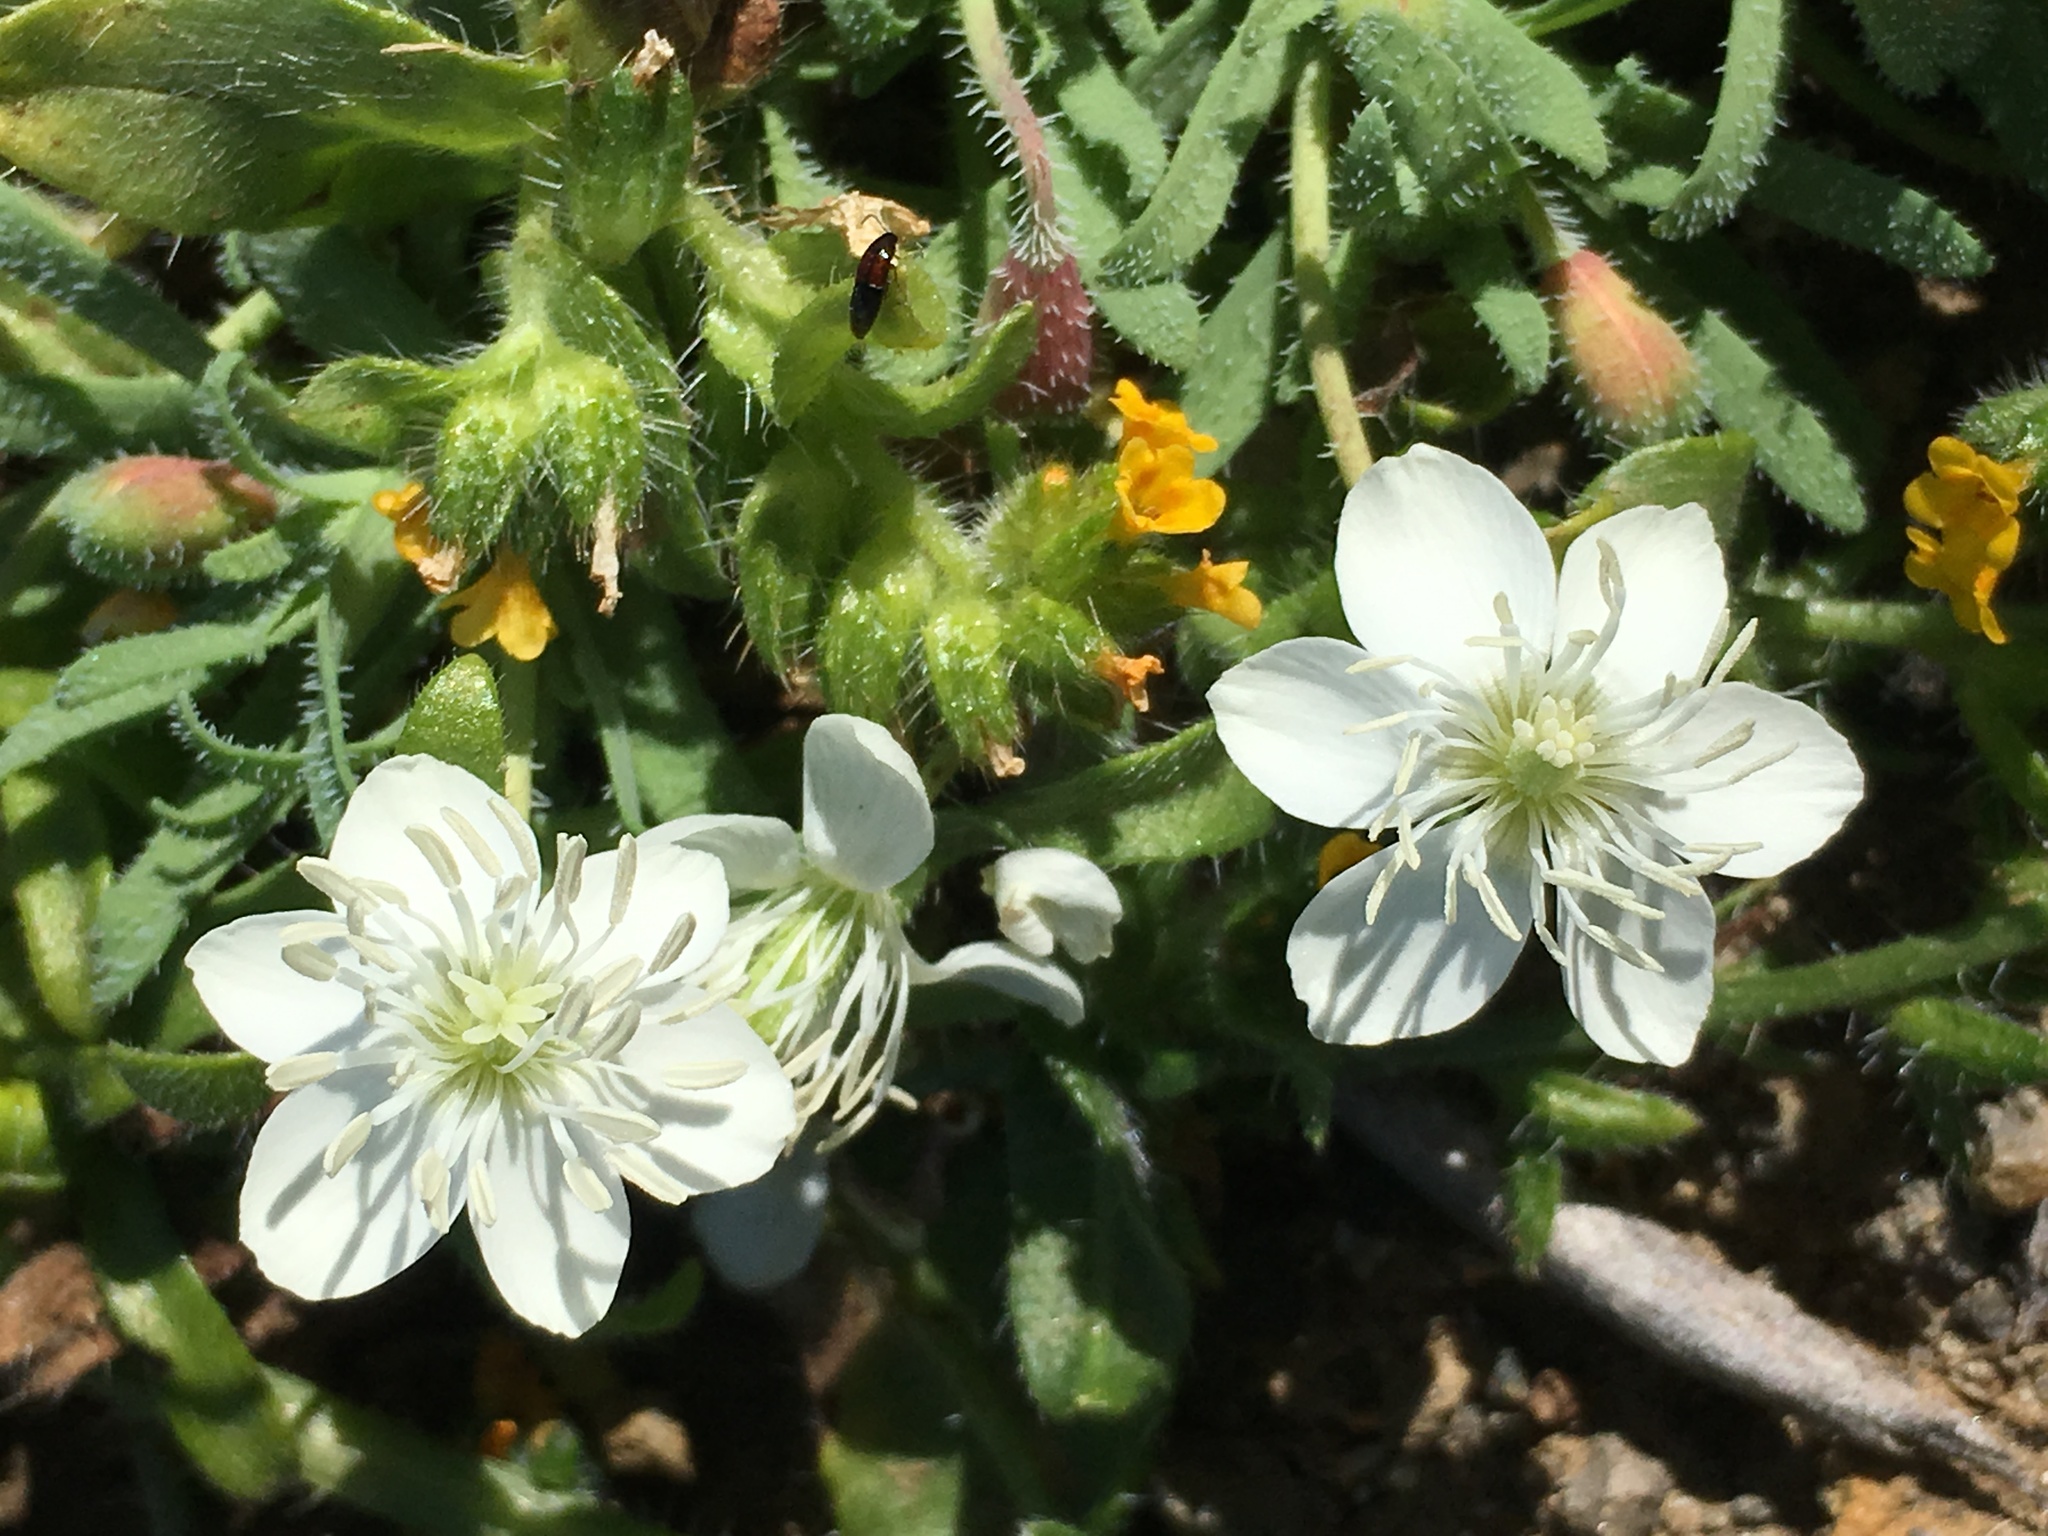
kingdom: Plantae
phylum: Tracheophyta
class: Magnoliopsida
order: Ranunculales
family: Papaveraceae
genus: Platystemon
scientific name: Platystemon californicus
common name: Cream-cups
